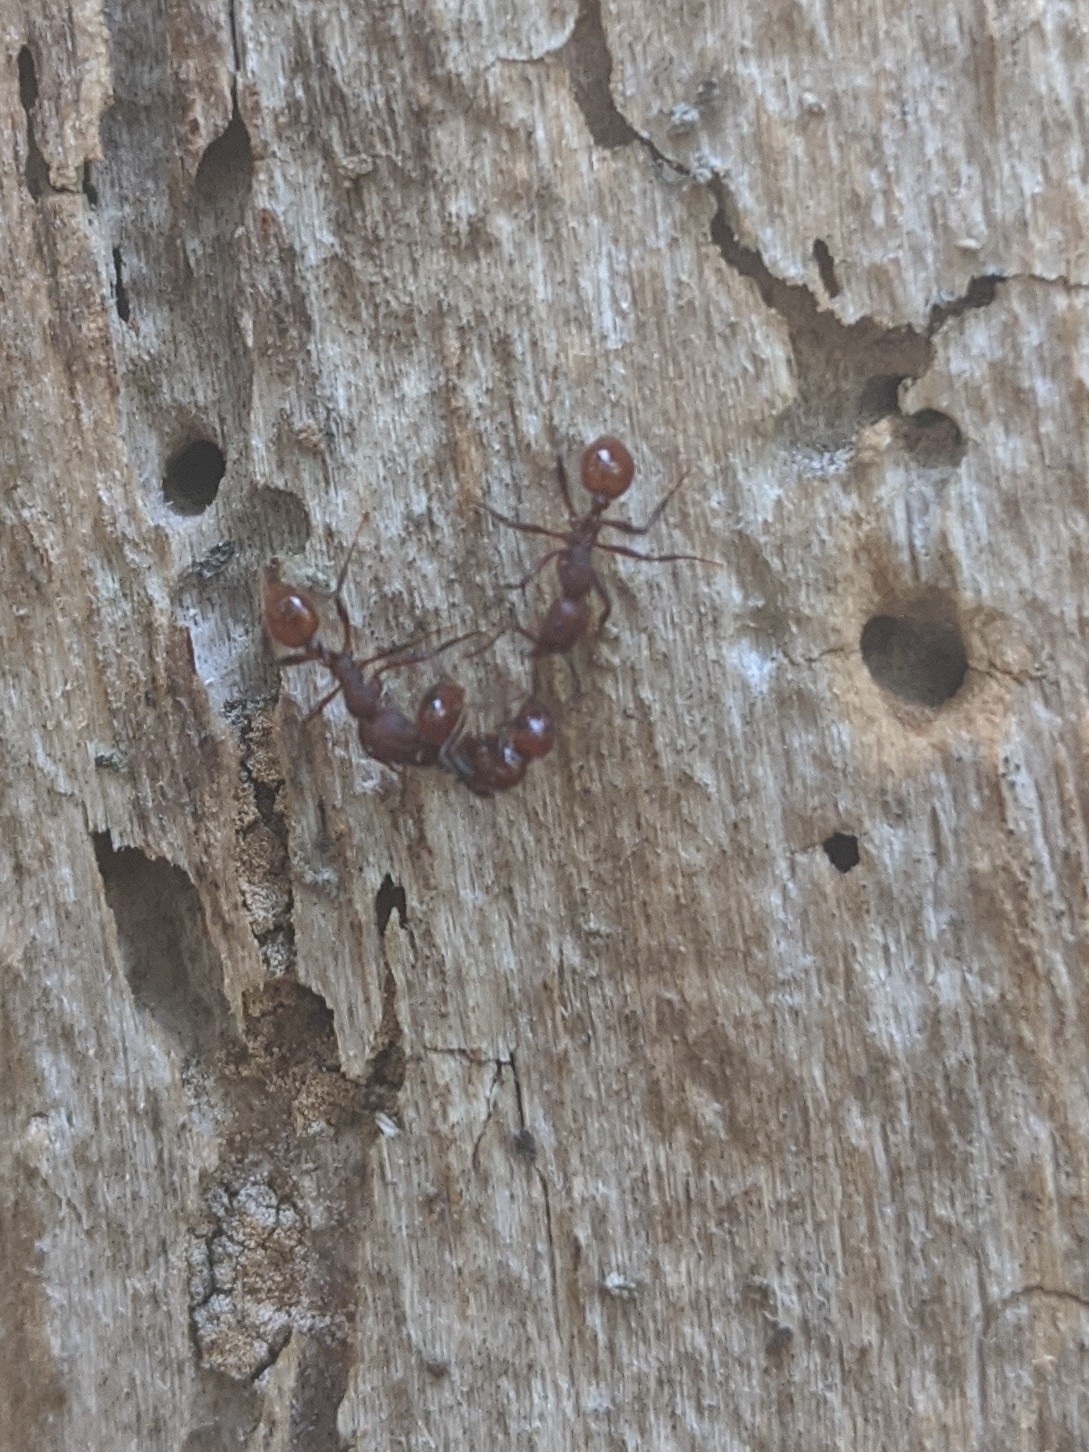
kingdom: Animalia
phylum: Arthropoda
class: Insecta
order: Hymenoptera
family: Formicidae
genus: Aphaenogaster
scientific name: Aphaenogaster tennesseensis
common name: Tennessee thread-waisted ant
